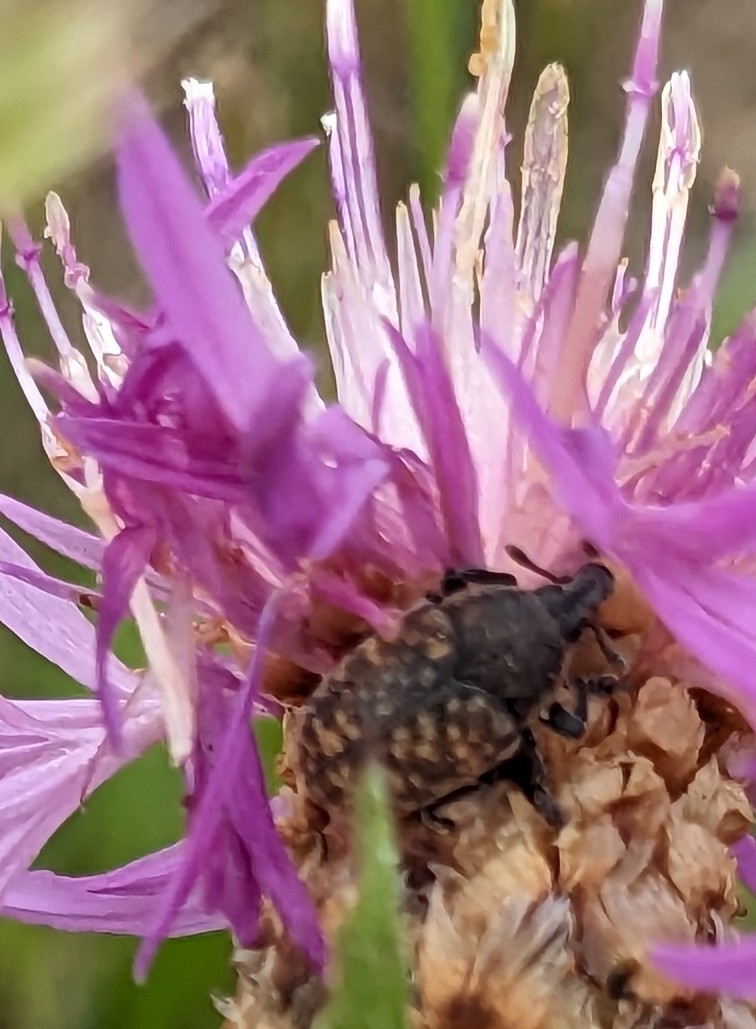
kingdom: Animalia
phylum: Arthropoda
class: Insecta
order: Coleoptera
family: Curculionidae
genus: Larinus
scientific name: Larinus obtusus
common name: Weevil
